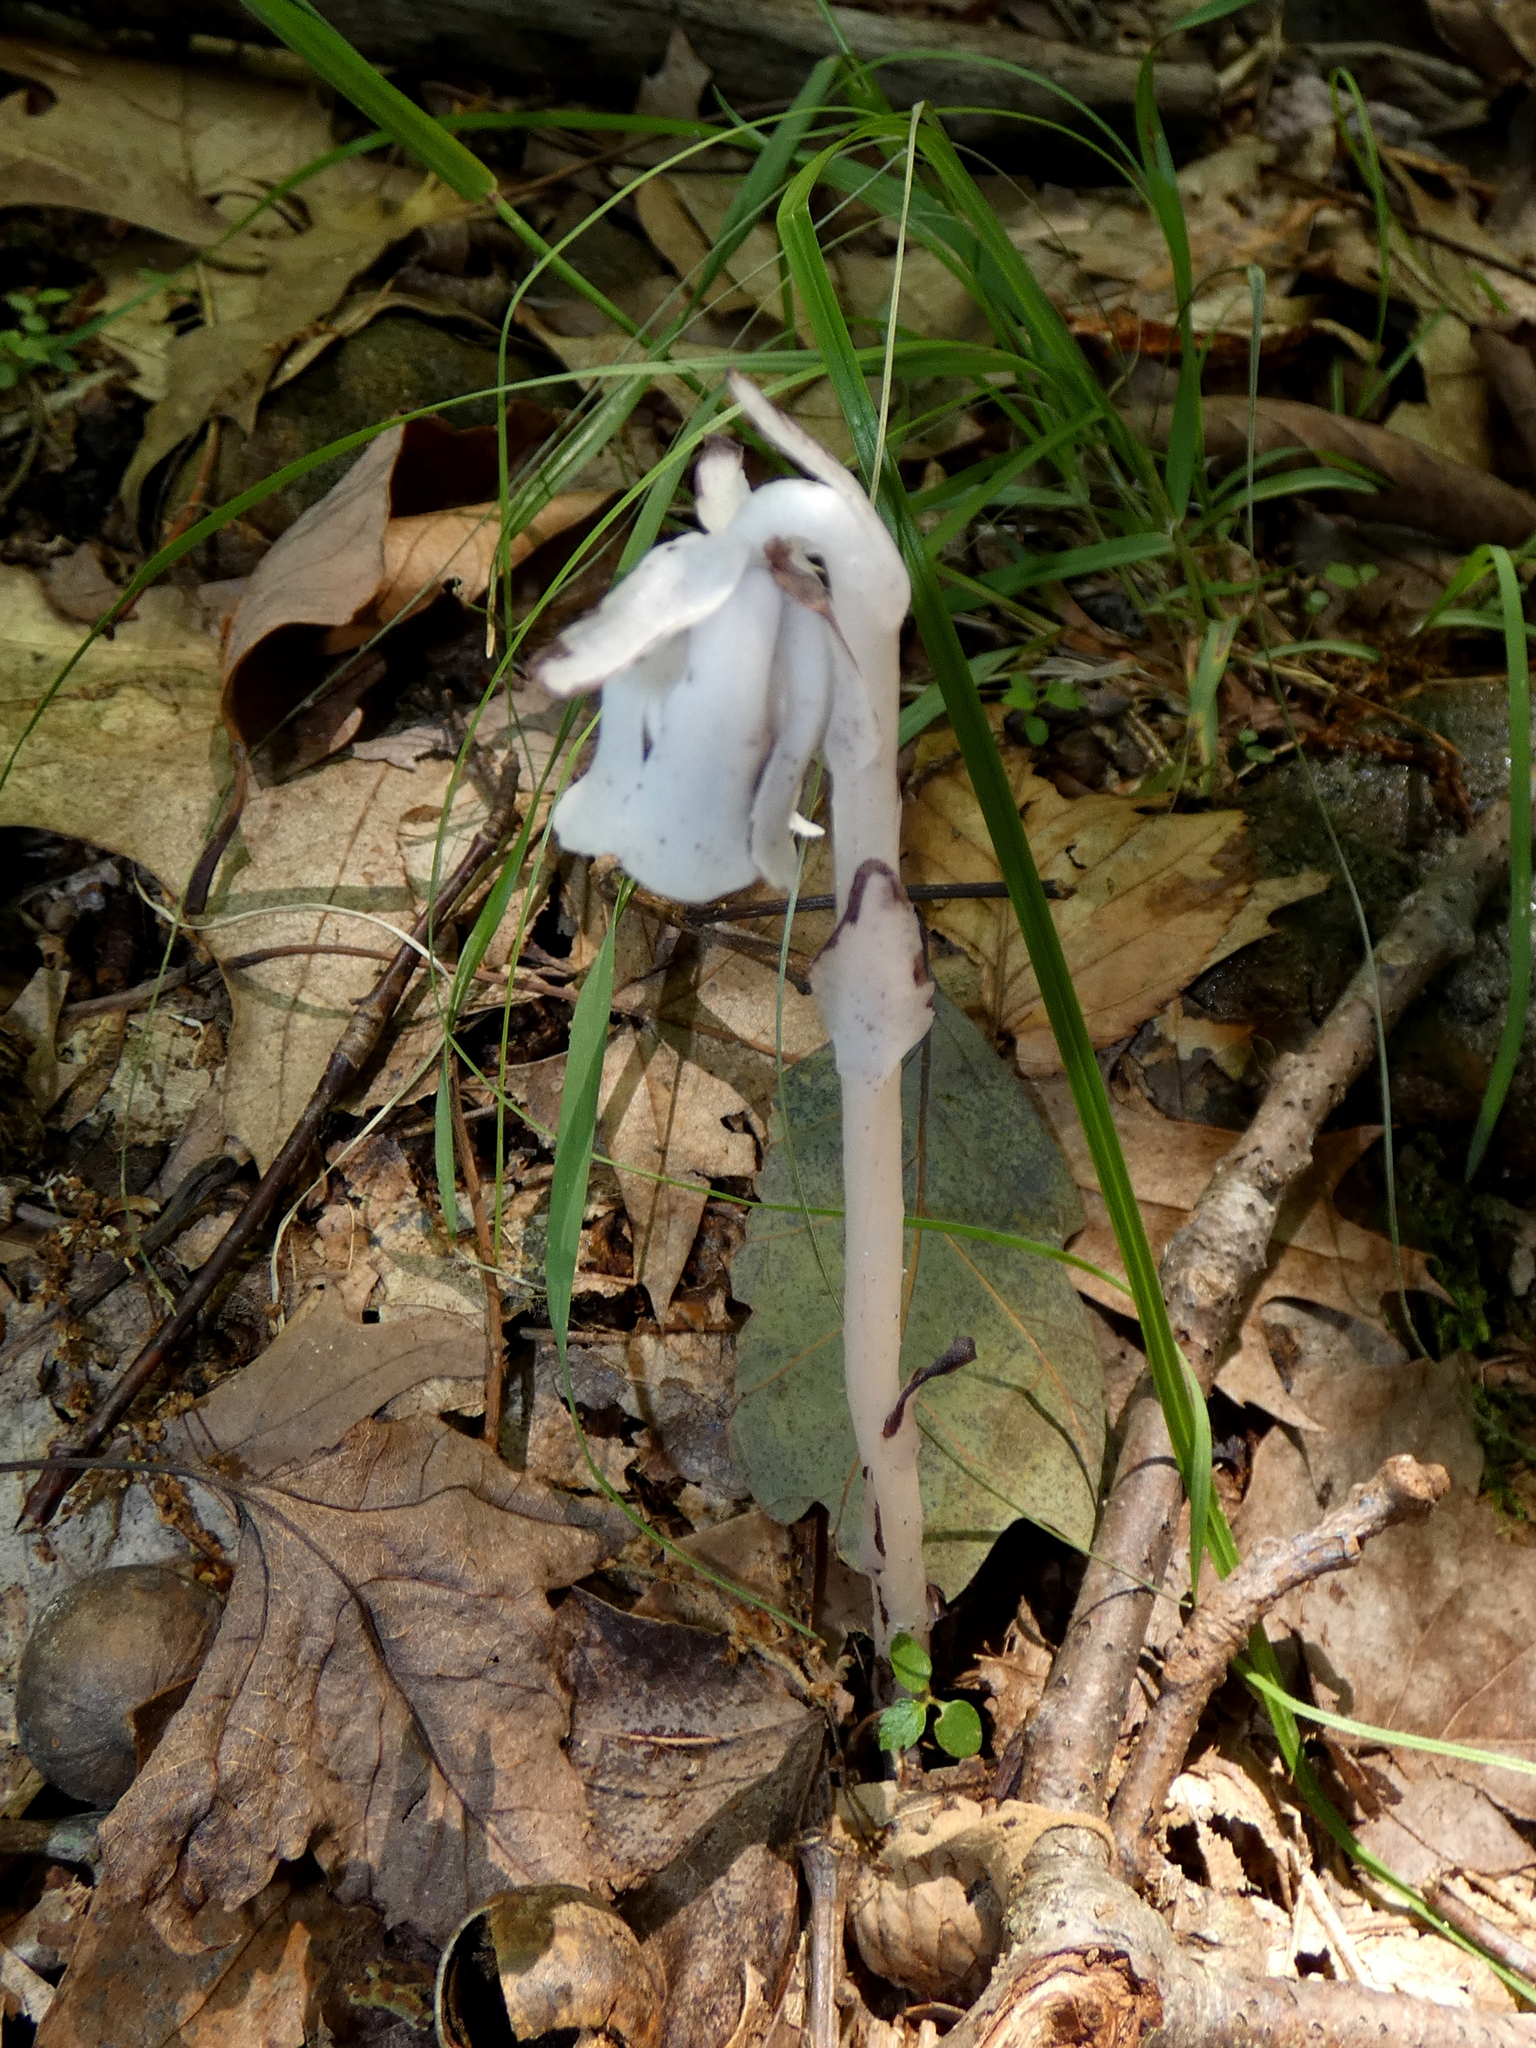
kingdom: Plantae
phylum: Tracheophyta
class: Magnoliopsida
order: Ericales
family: Ericaceae
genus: Monotropa
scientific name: Monotropa uniflora
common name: Convulsion root
